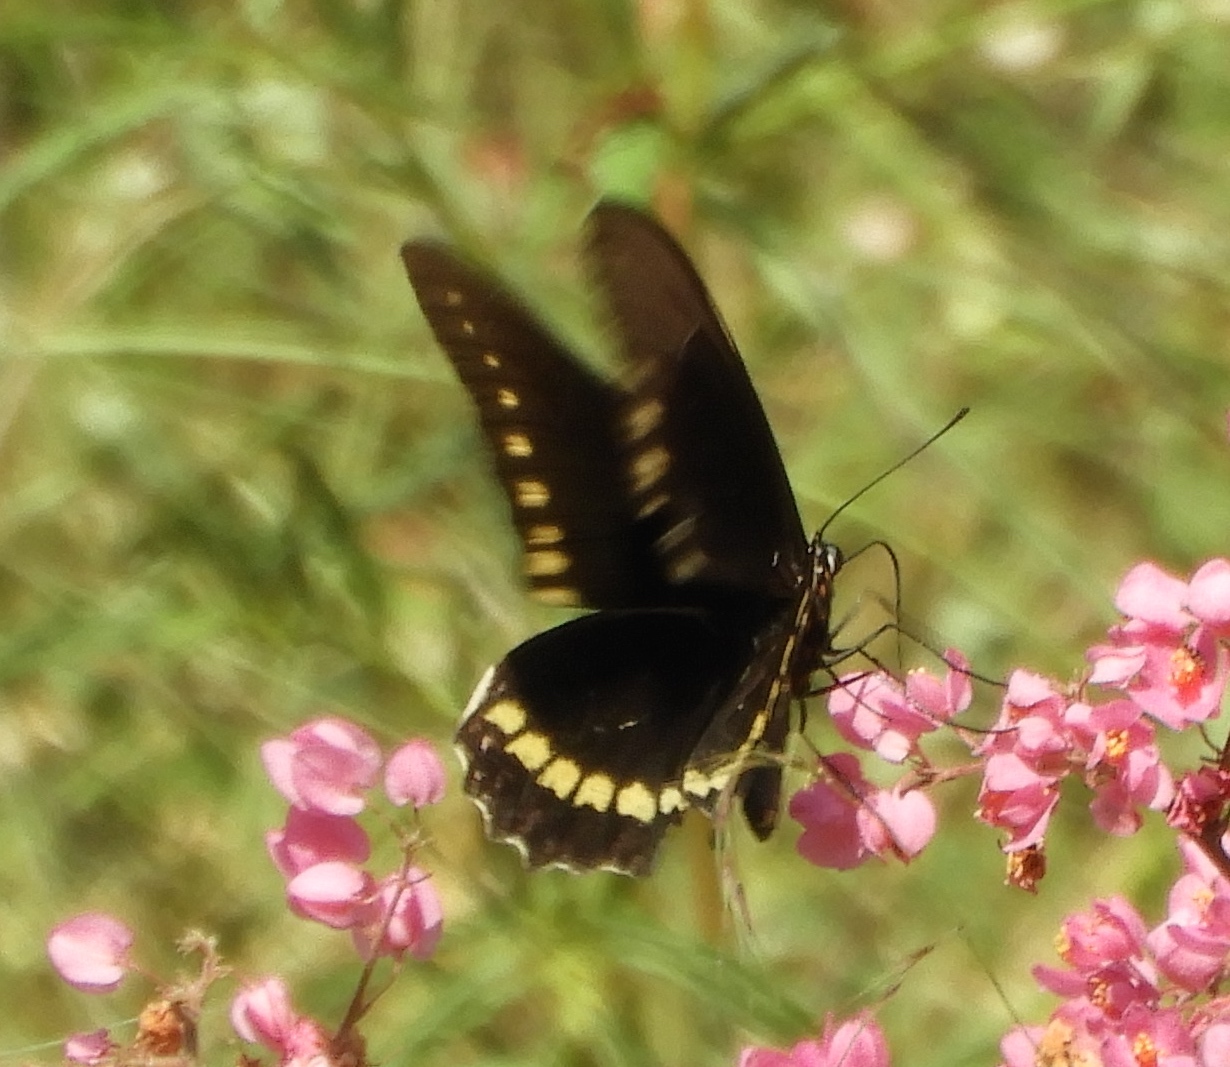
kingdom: Animalia
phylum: Arthropoda
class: Insecta
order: Lepidoptera
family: Papilionidae
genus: Battus
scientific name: Battus polydamas
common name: Polydamas swallowtail
